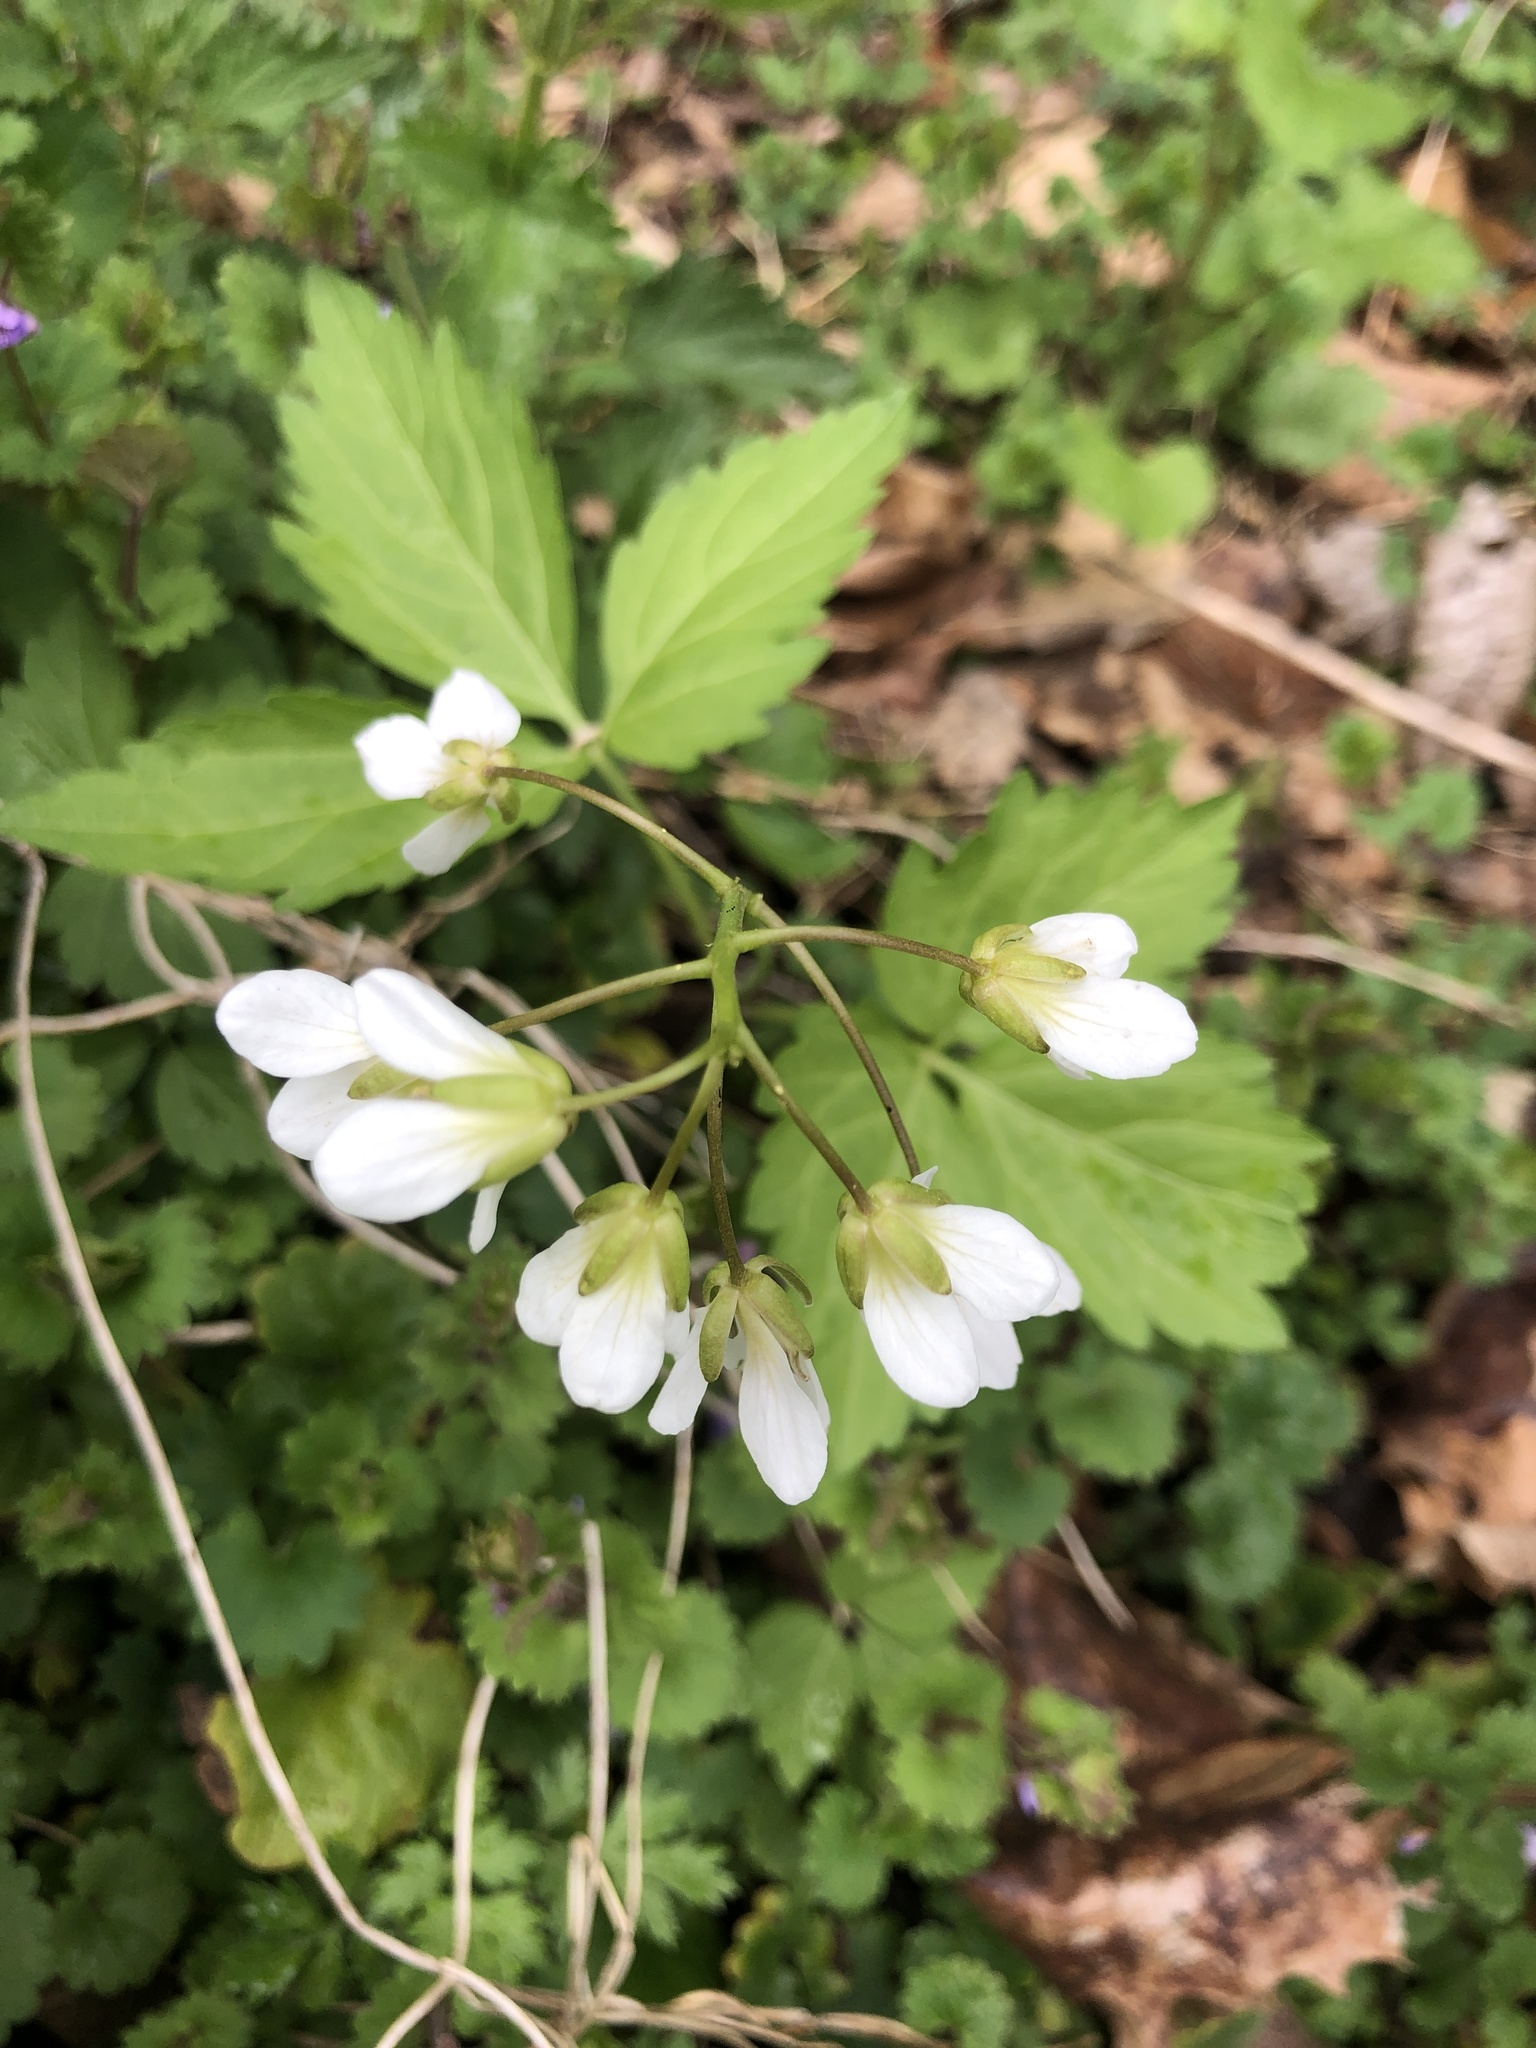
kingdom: Plantae
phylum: Tracheophyta
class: Magnoliopsida
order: Brassicales
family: Brassicaceae
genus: Cardamine
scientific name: Cardamine diphylla
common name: Broad-leaved toothwort
